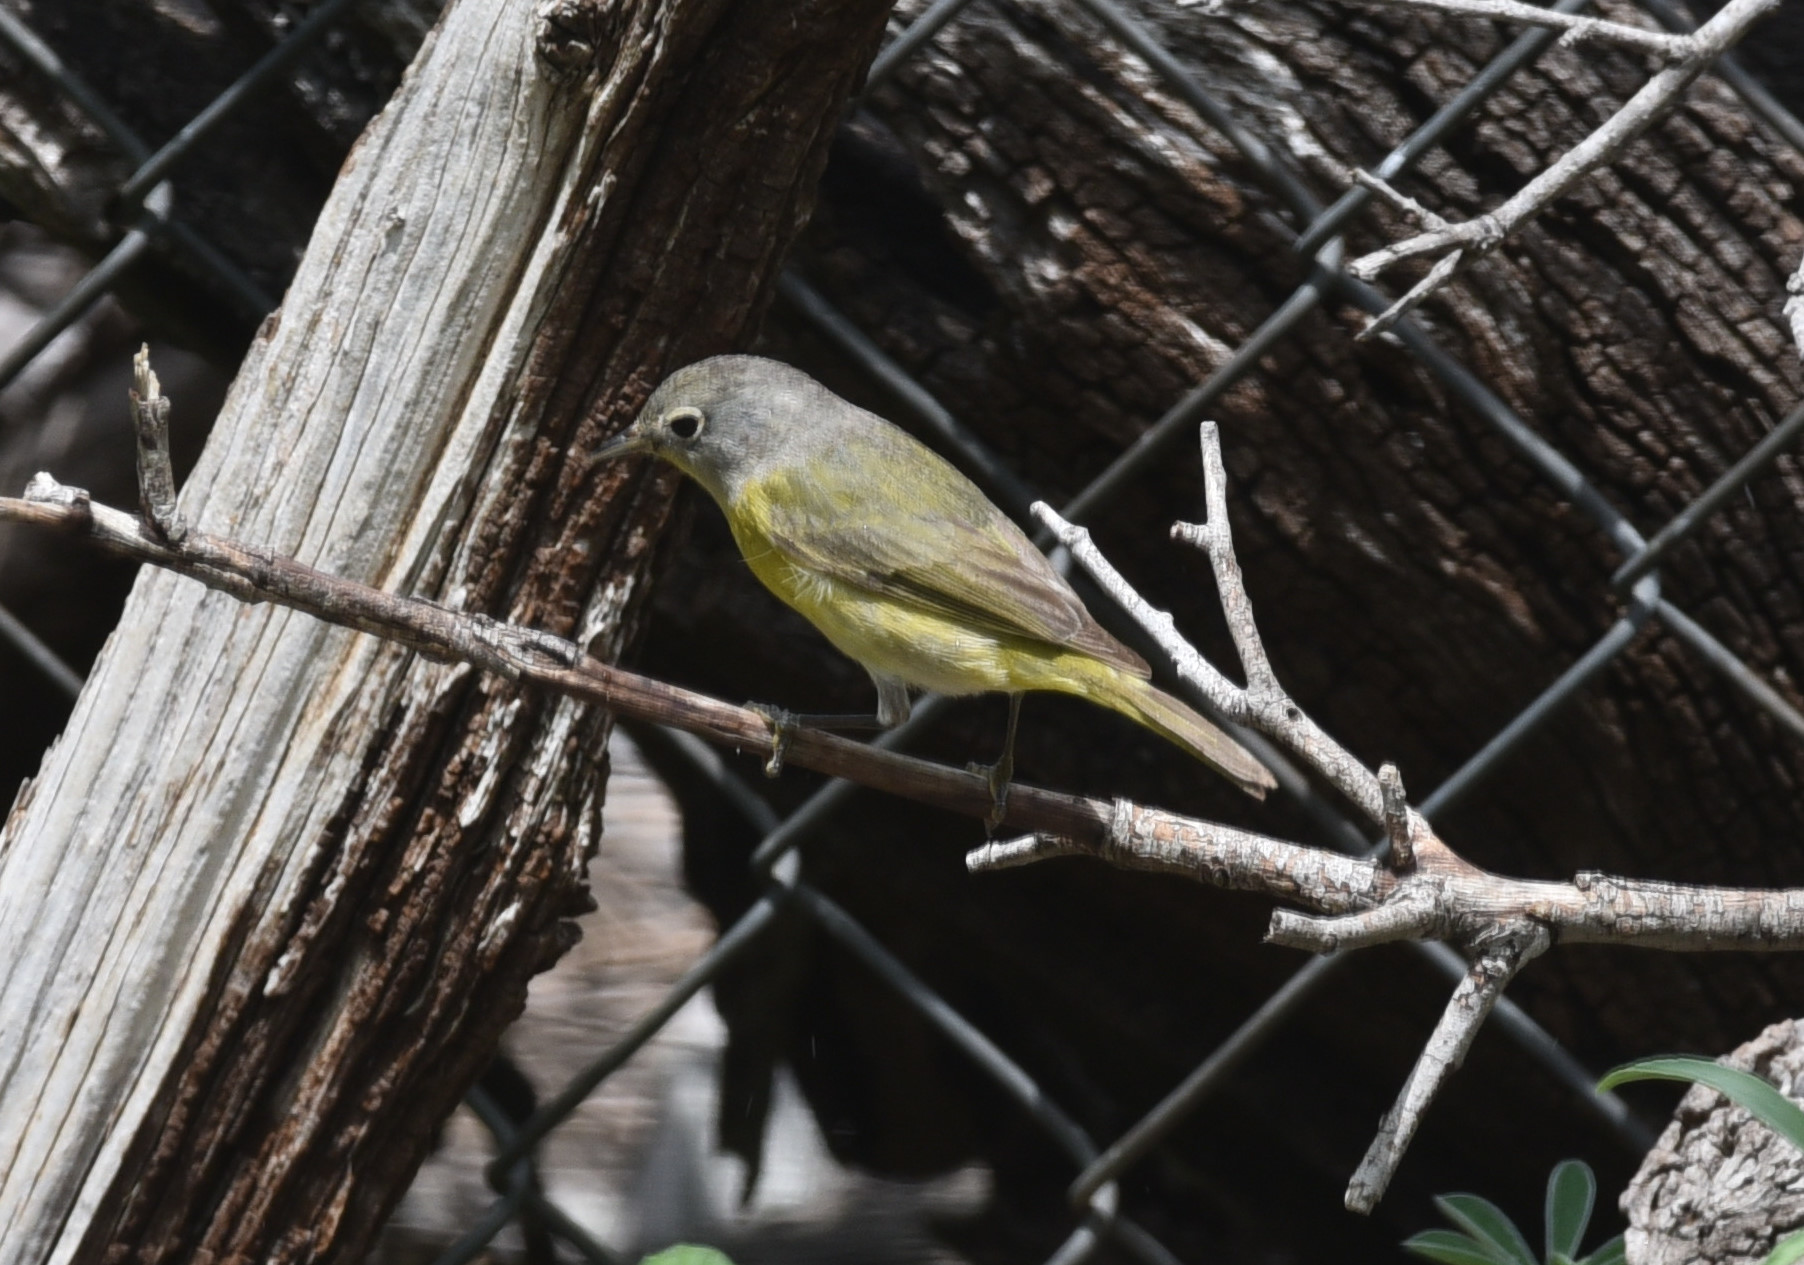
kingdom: Animalia
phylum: Chordata
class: Aves
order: Passeriformes
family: Parulidae
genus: Leiothlypis
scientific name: Leiothlypis ruficapilla
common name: Nashville warbler
